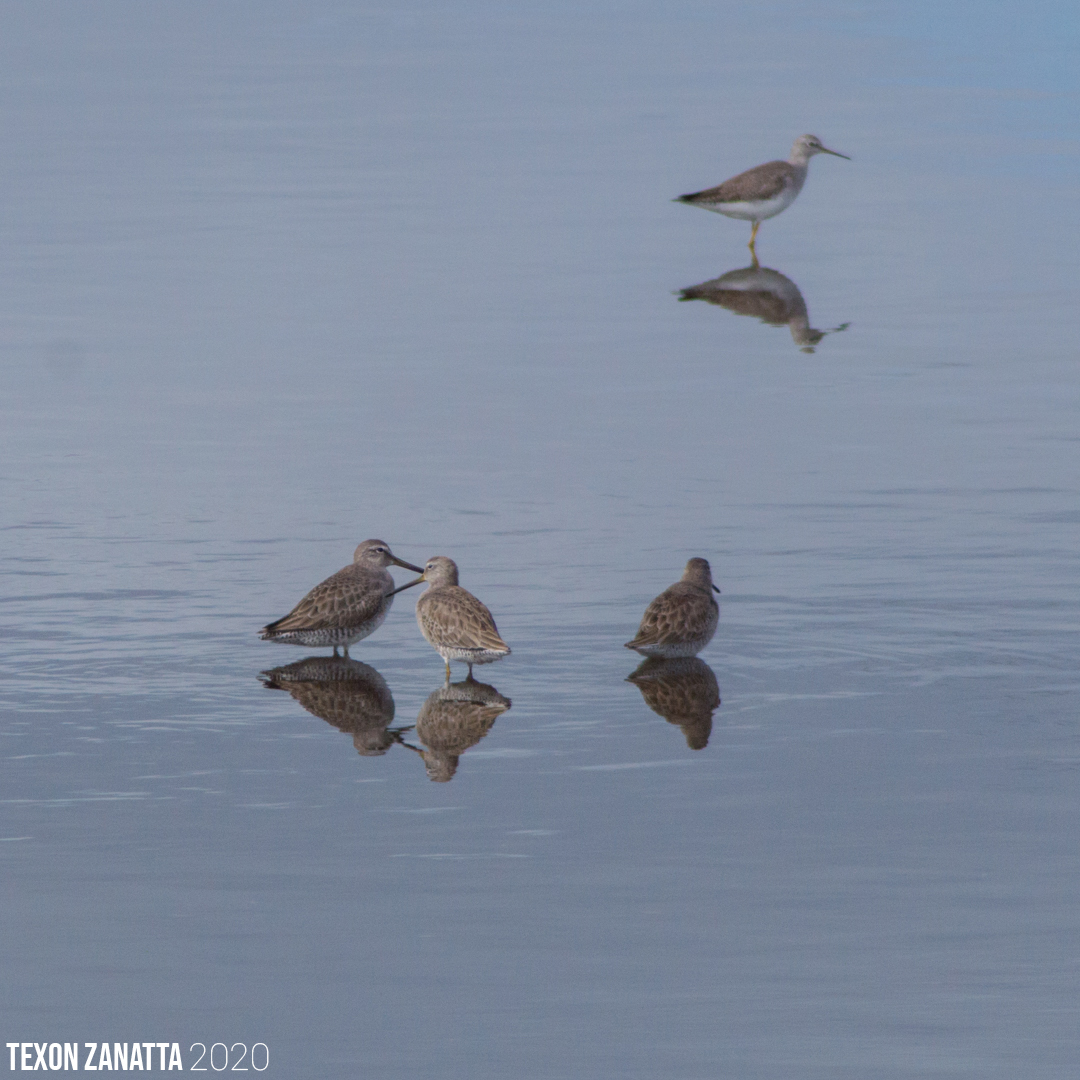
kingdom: Animalia
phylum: Chordata
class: Aves
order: Charadriiformes
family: Scolopacidae
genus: Tringa
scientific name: Tringa melanoleuca
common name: Greater yellowlegs
